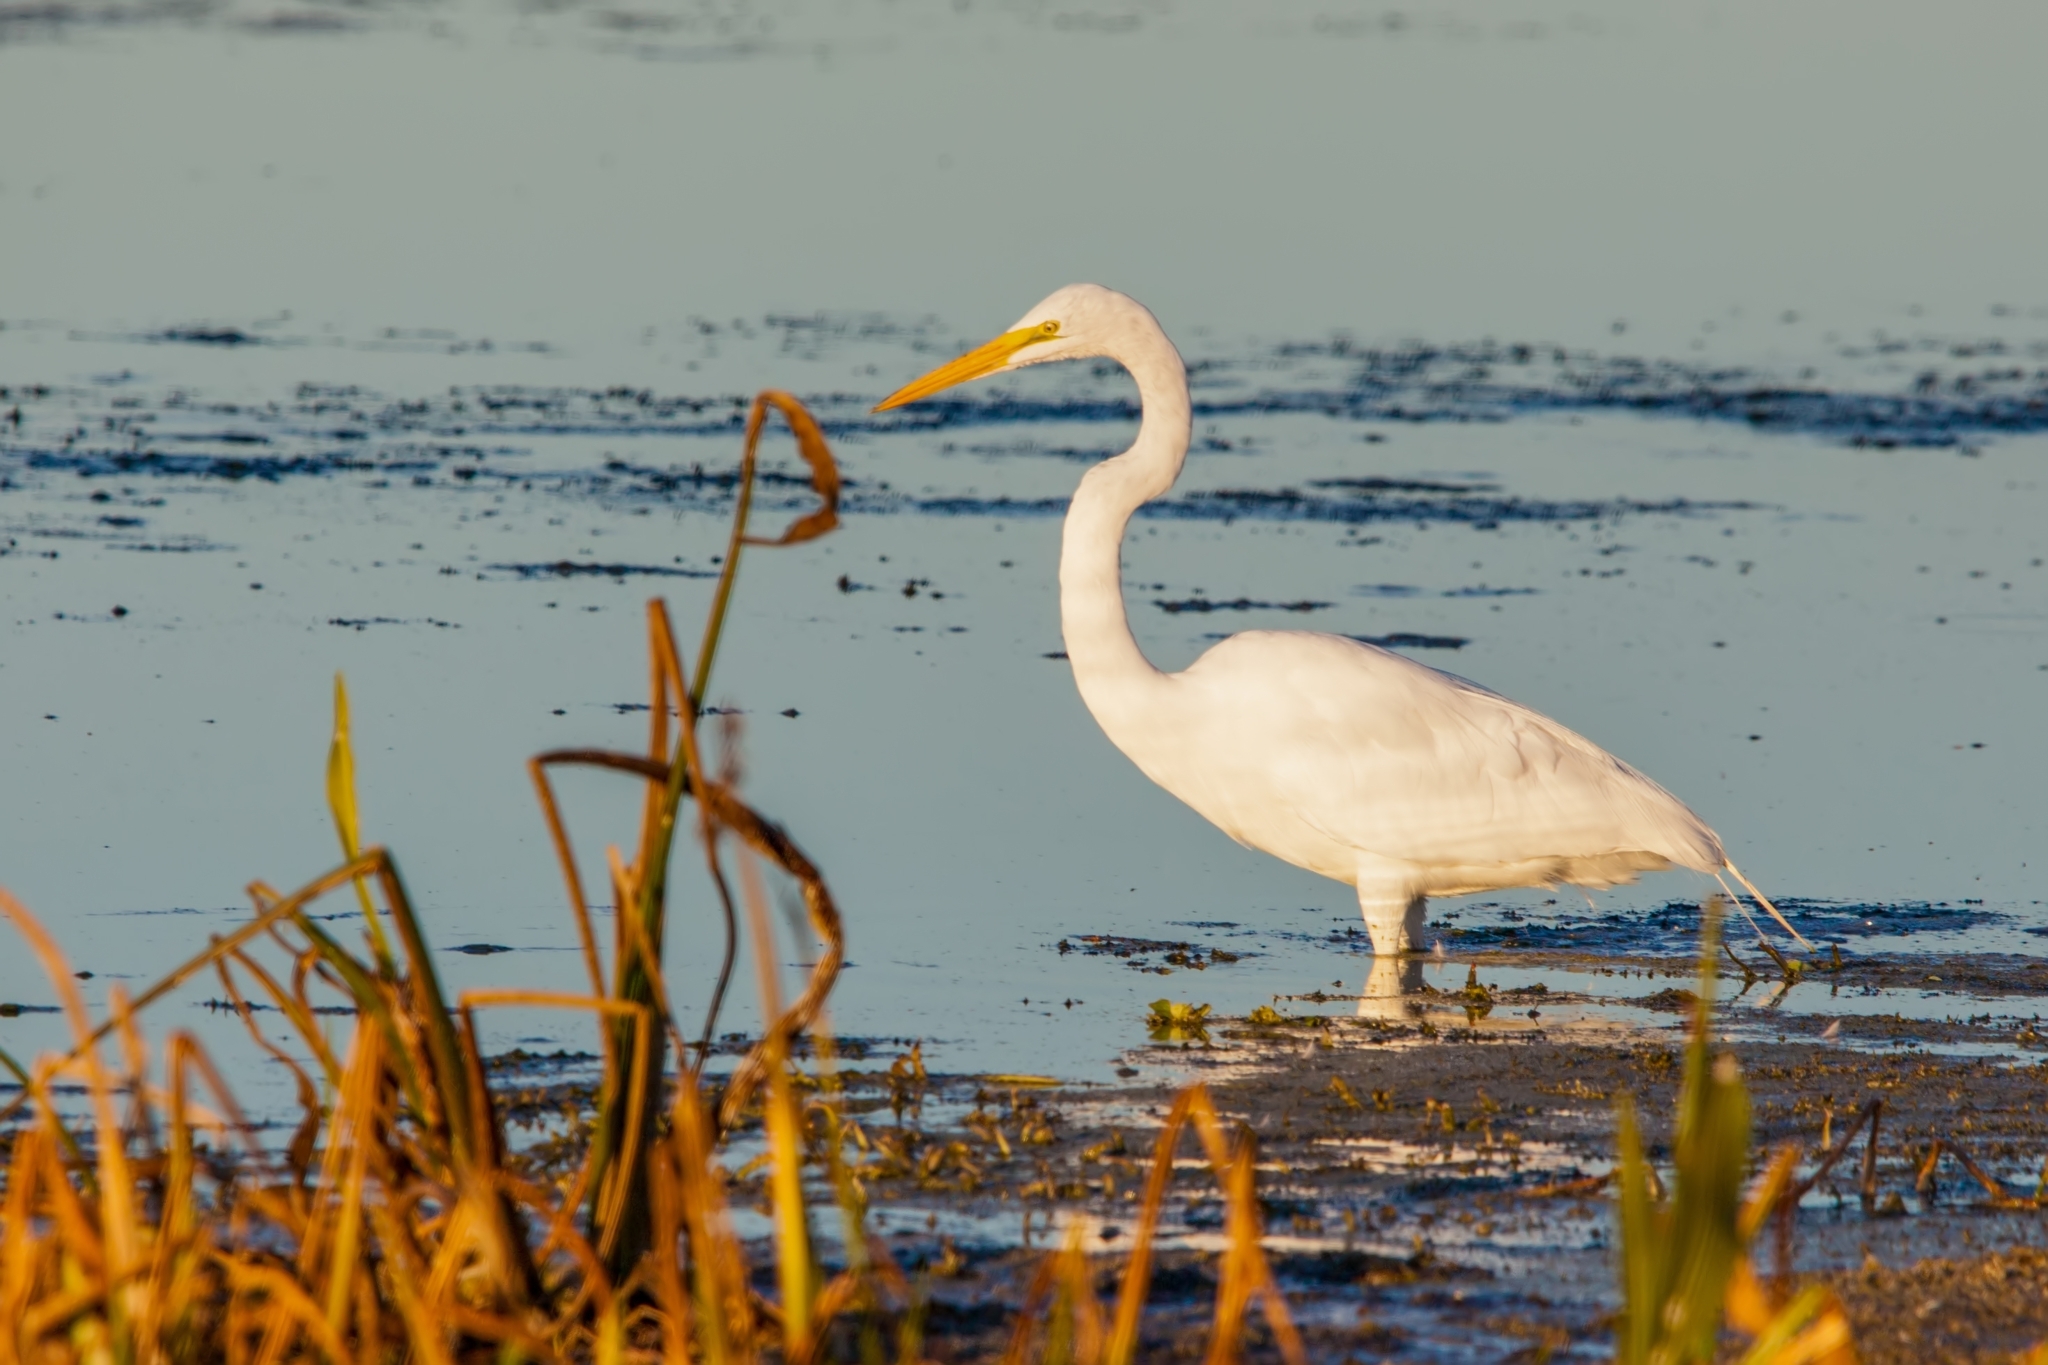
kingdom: Animalia
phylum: Chordata
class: Aves
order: Pelecaniformes
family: Ardeidae
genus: Ardea
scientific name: Ardea alba
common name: Great egret
